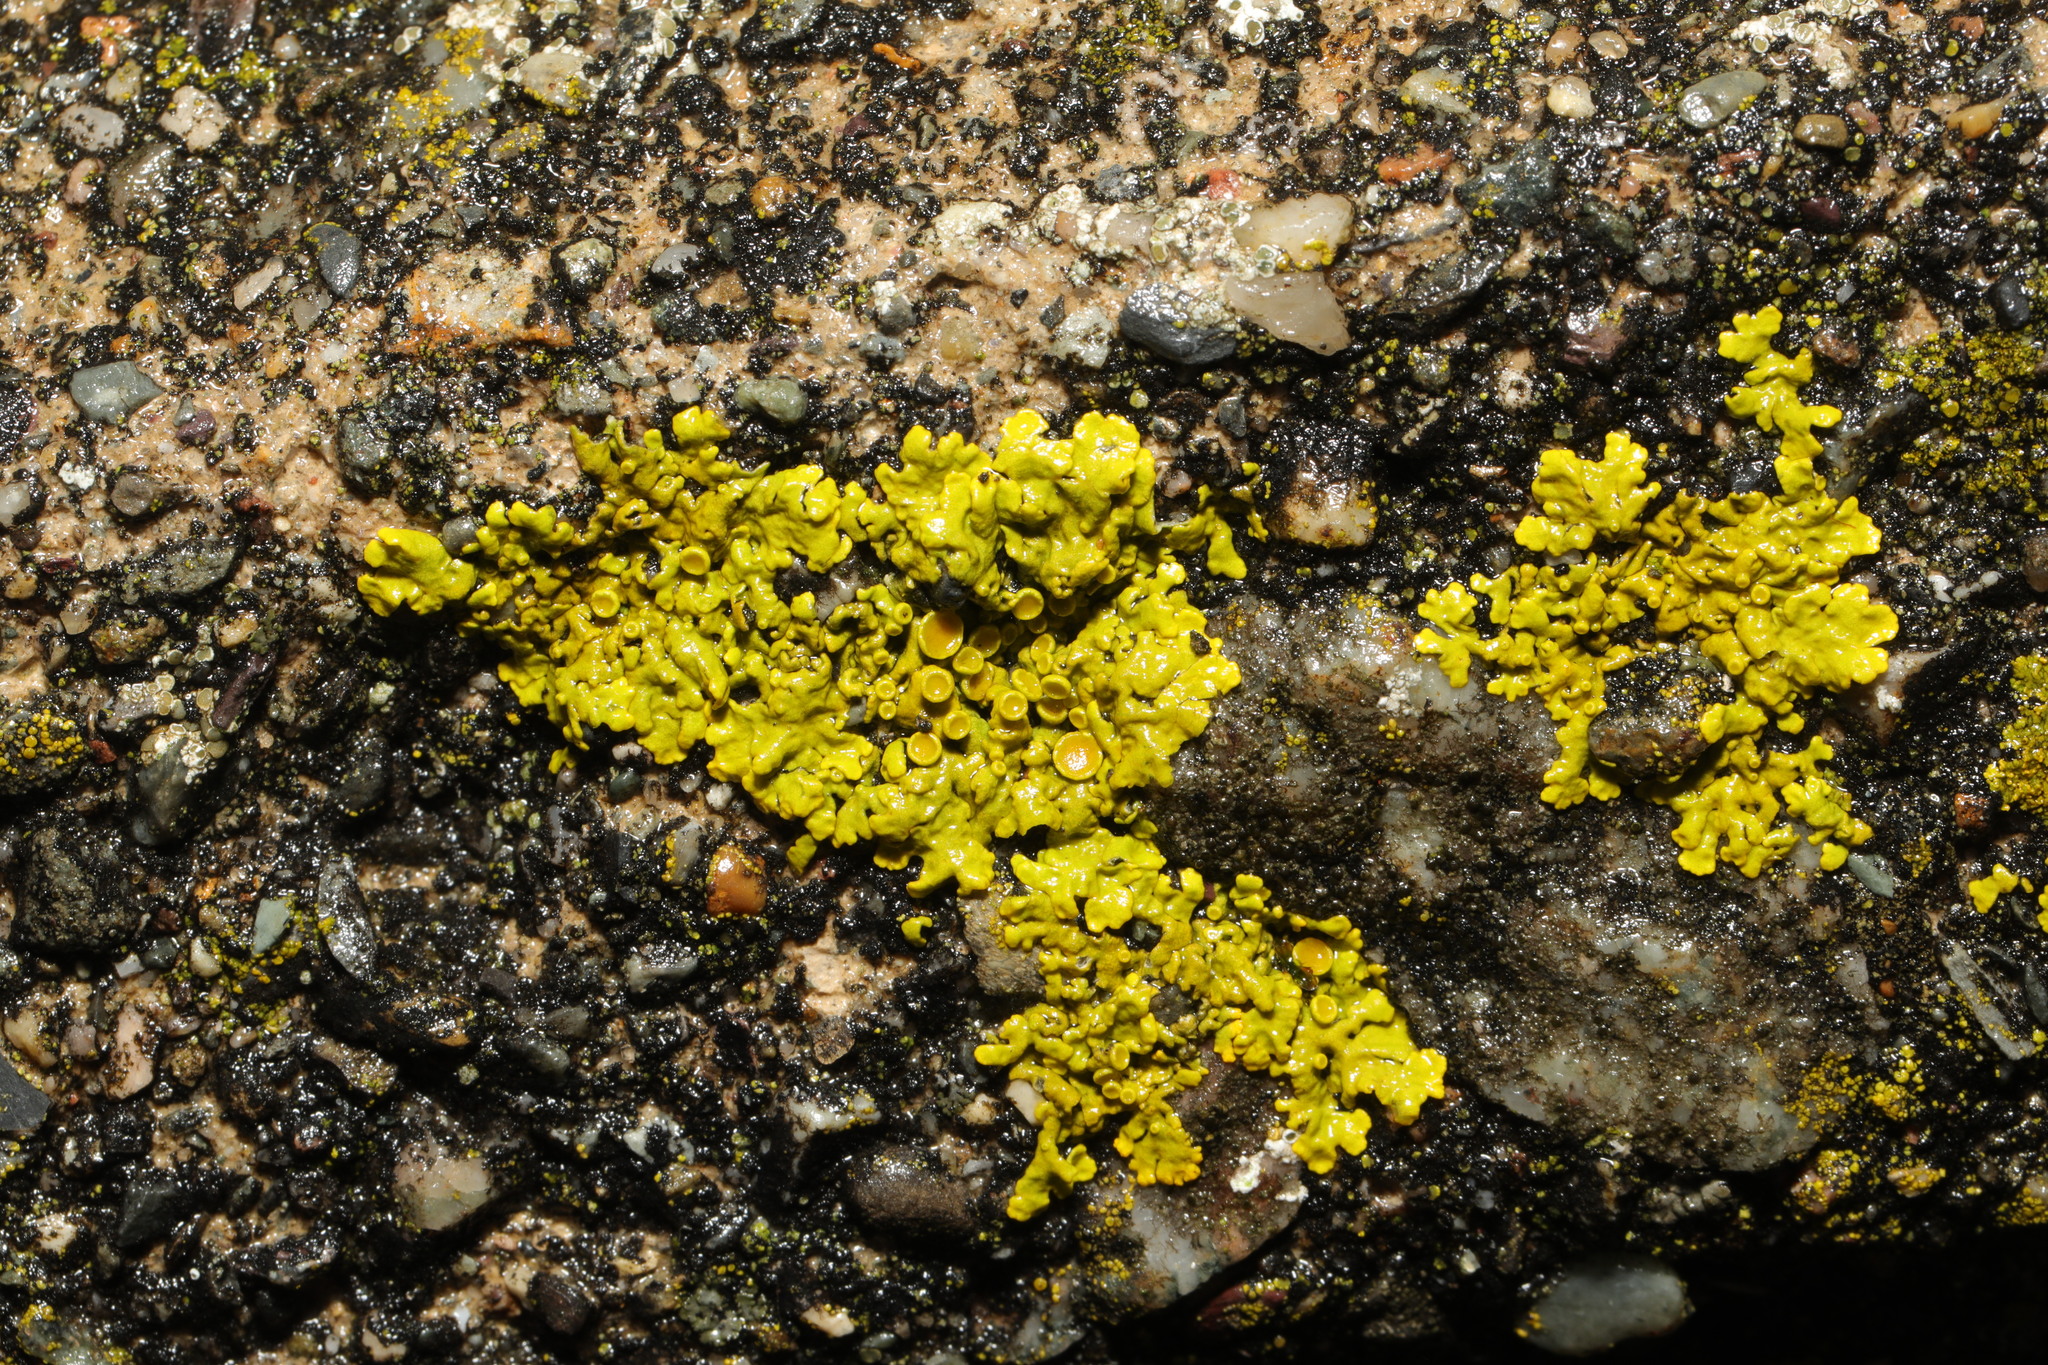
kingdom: Fungi
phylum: Ascomycota
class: Lecanoromycetes
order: Teloschistales
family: Teloschistaceae
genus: Xanthoria
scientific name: Xanthoria parietina
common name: Common orange lichen
